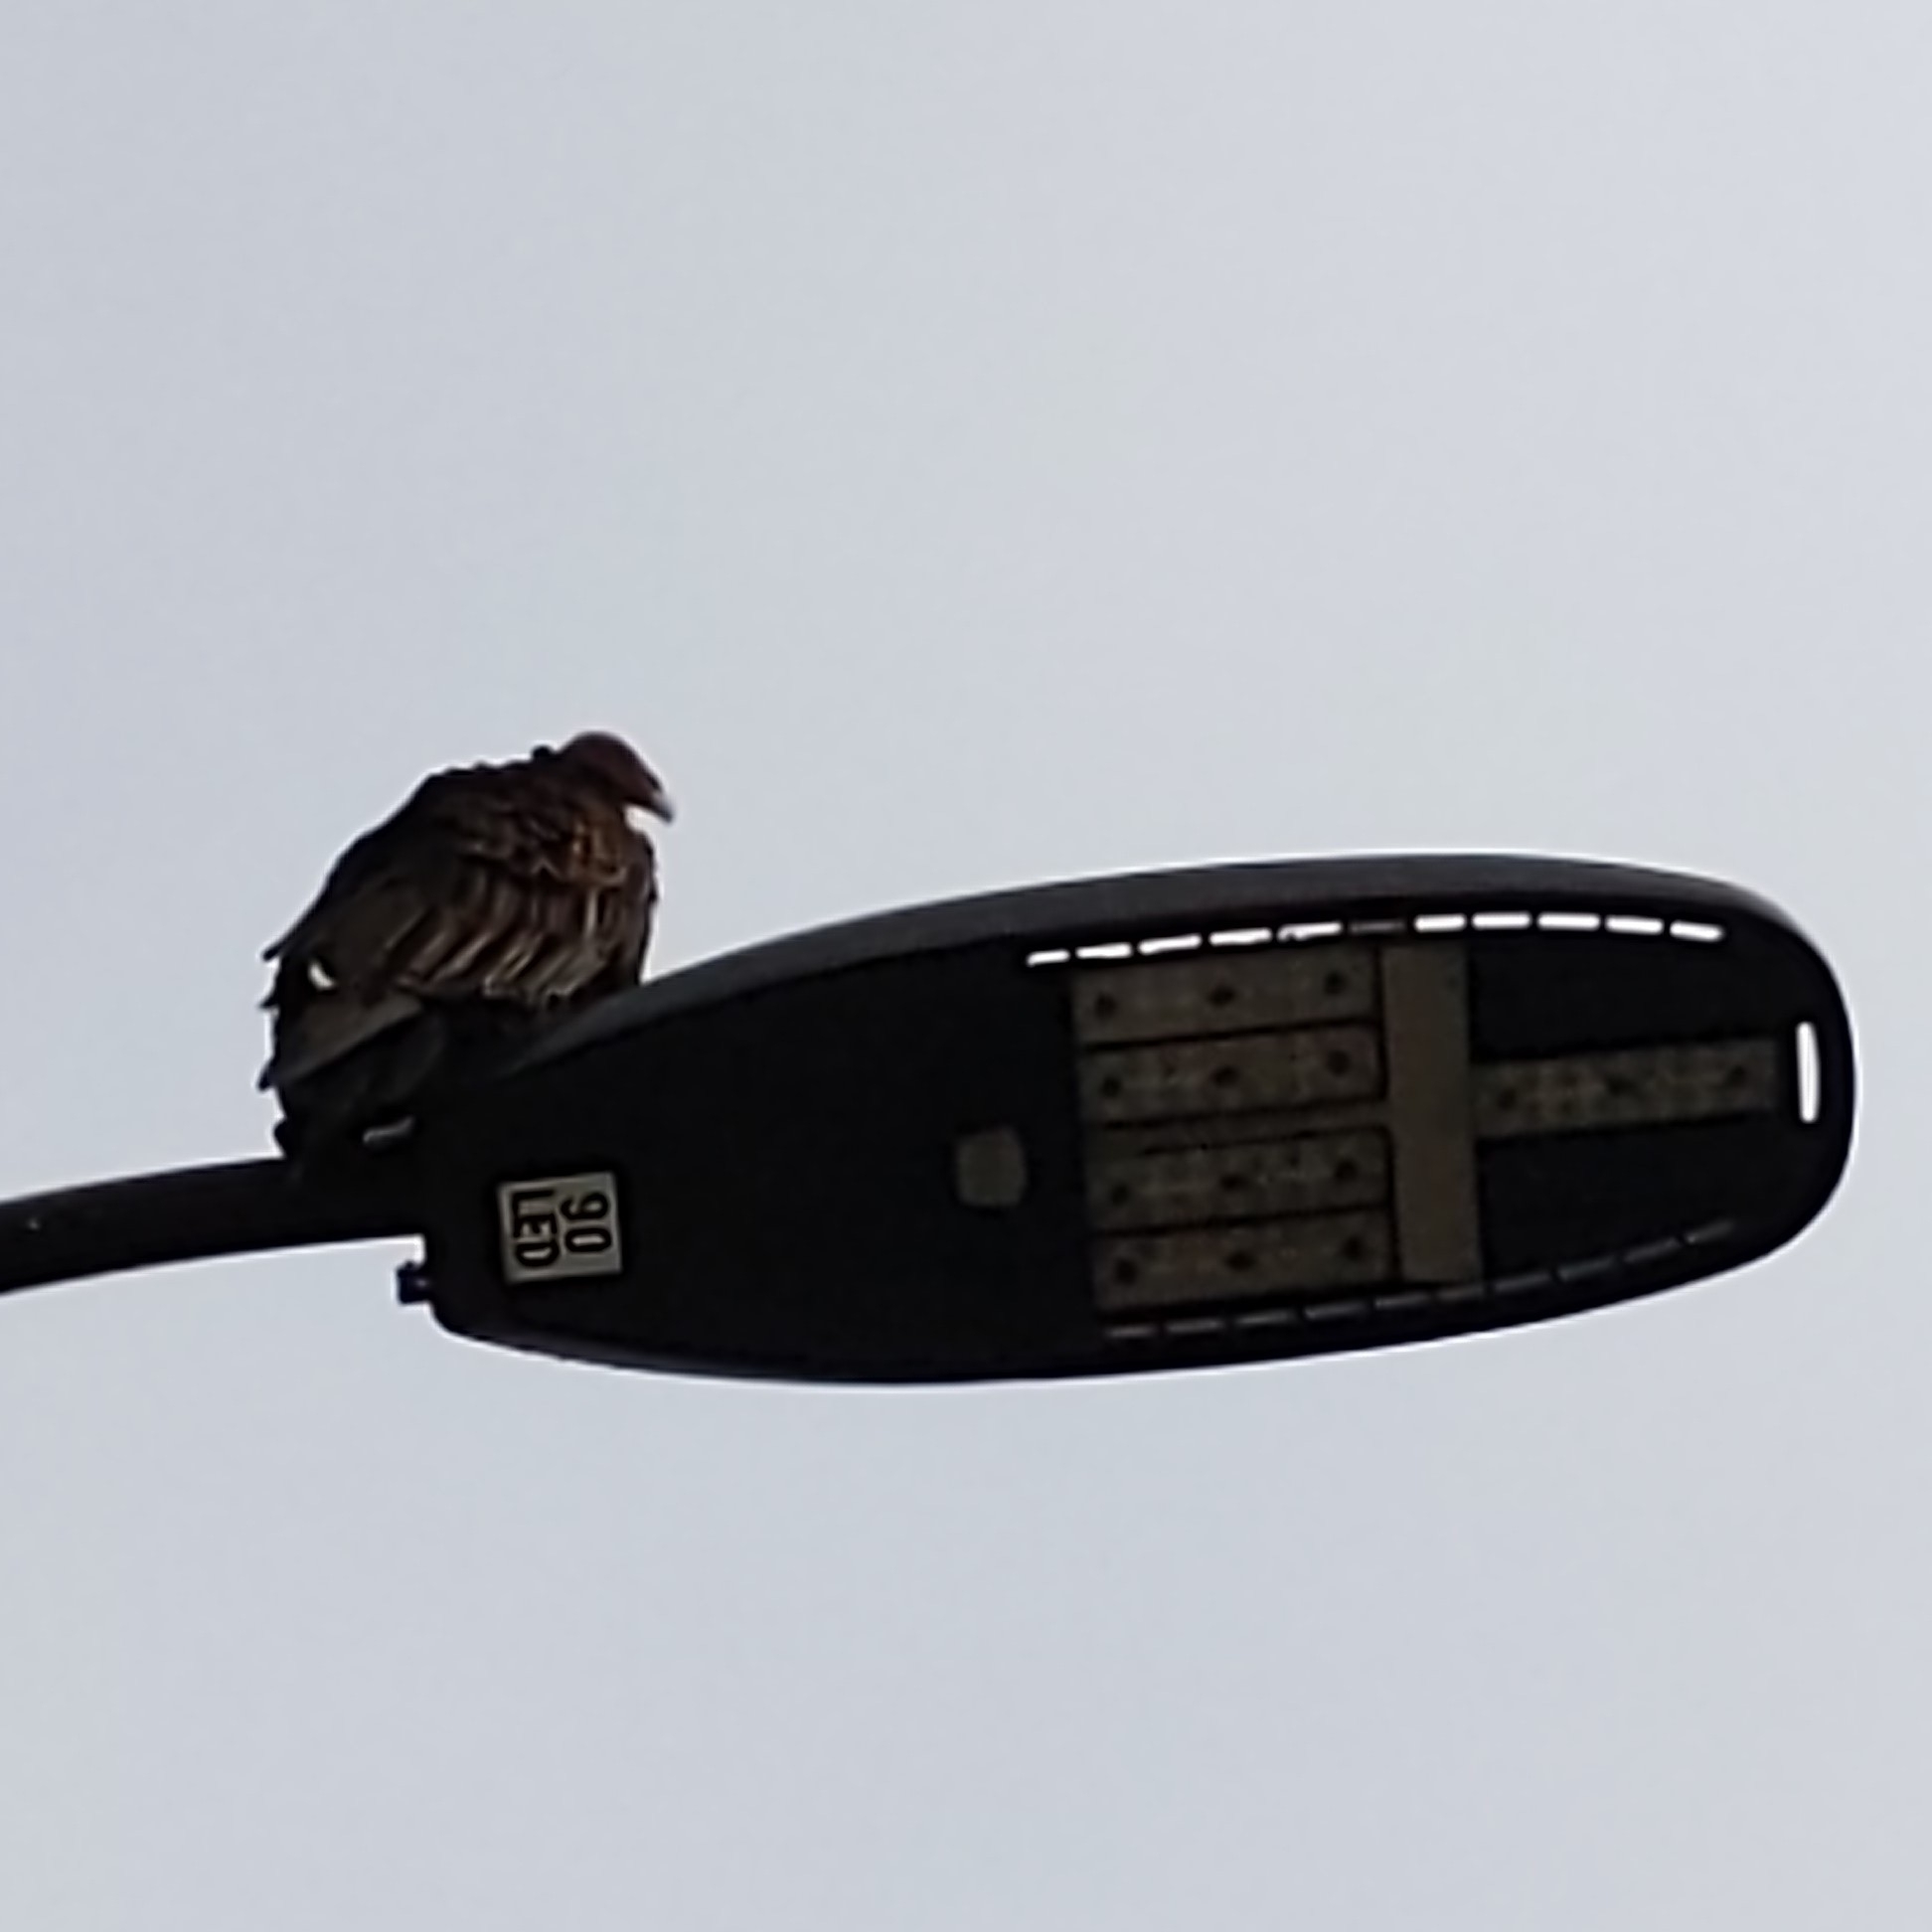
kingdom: Animalia
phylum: Chordata
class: Aves
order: Accipitriformes
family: Cathartidae
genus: Cathartes
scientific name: Cathartes aura
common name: Turkey vulture
